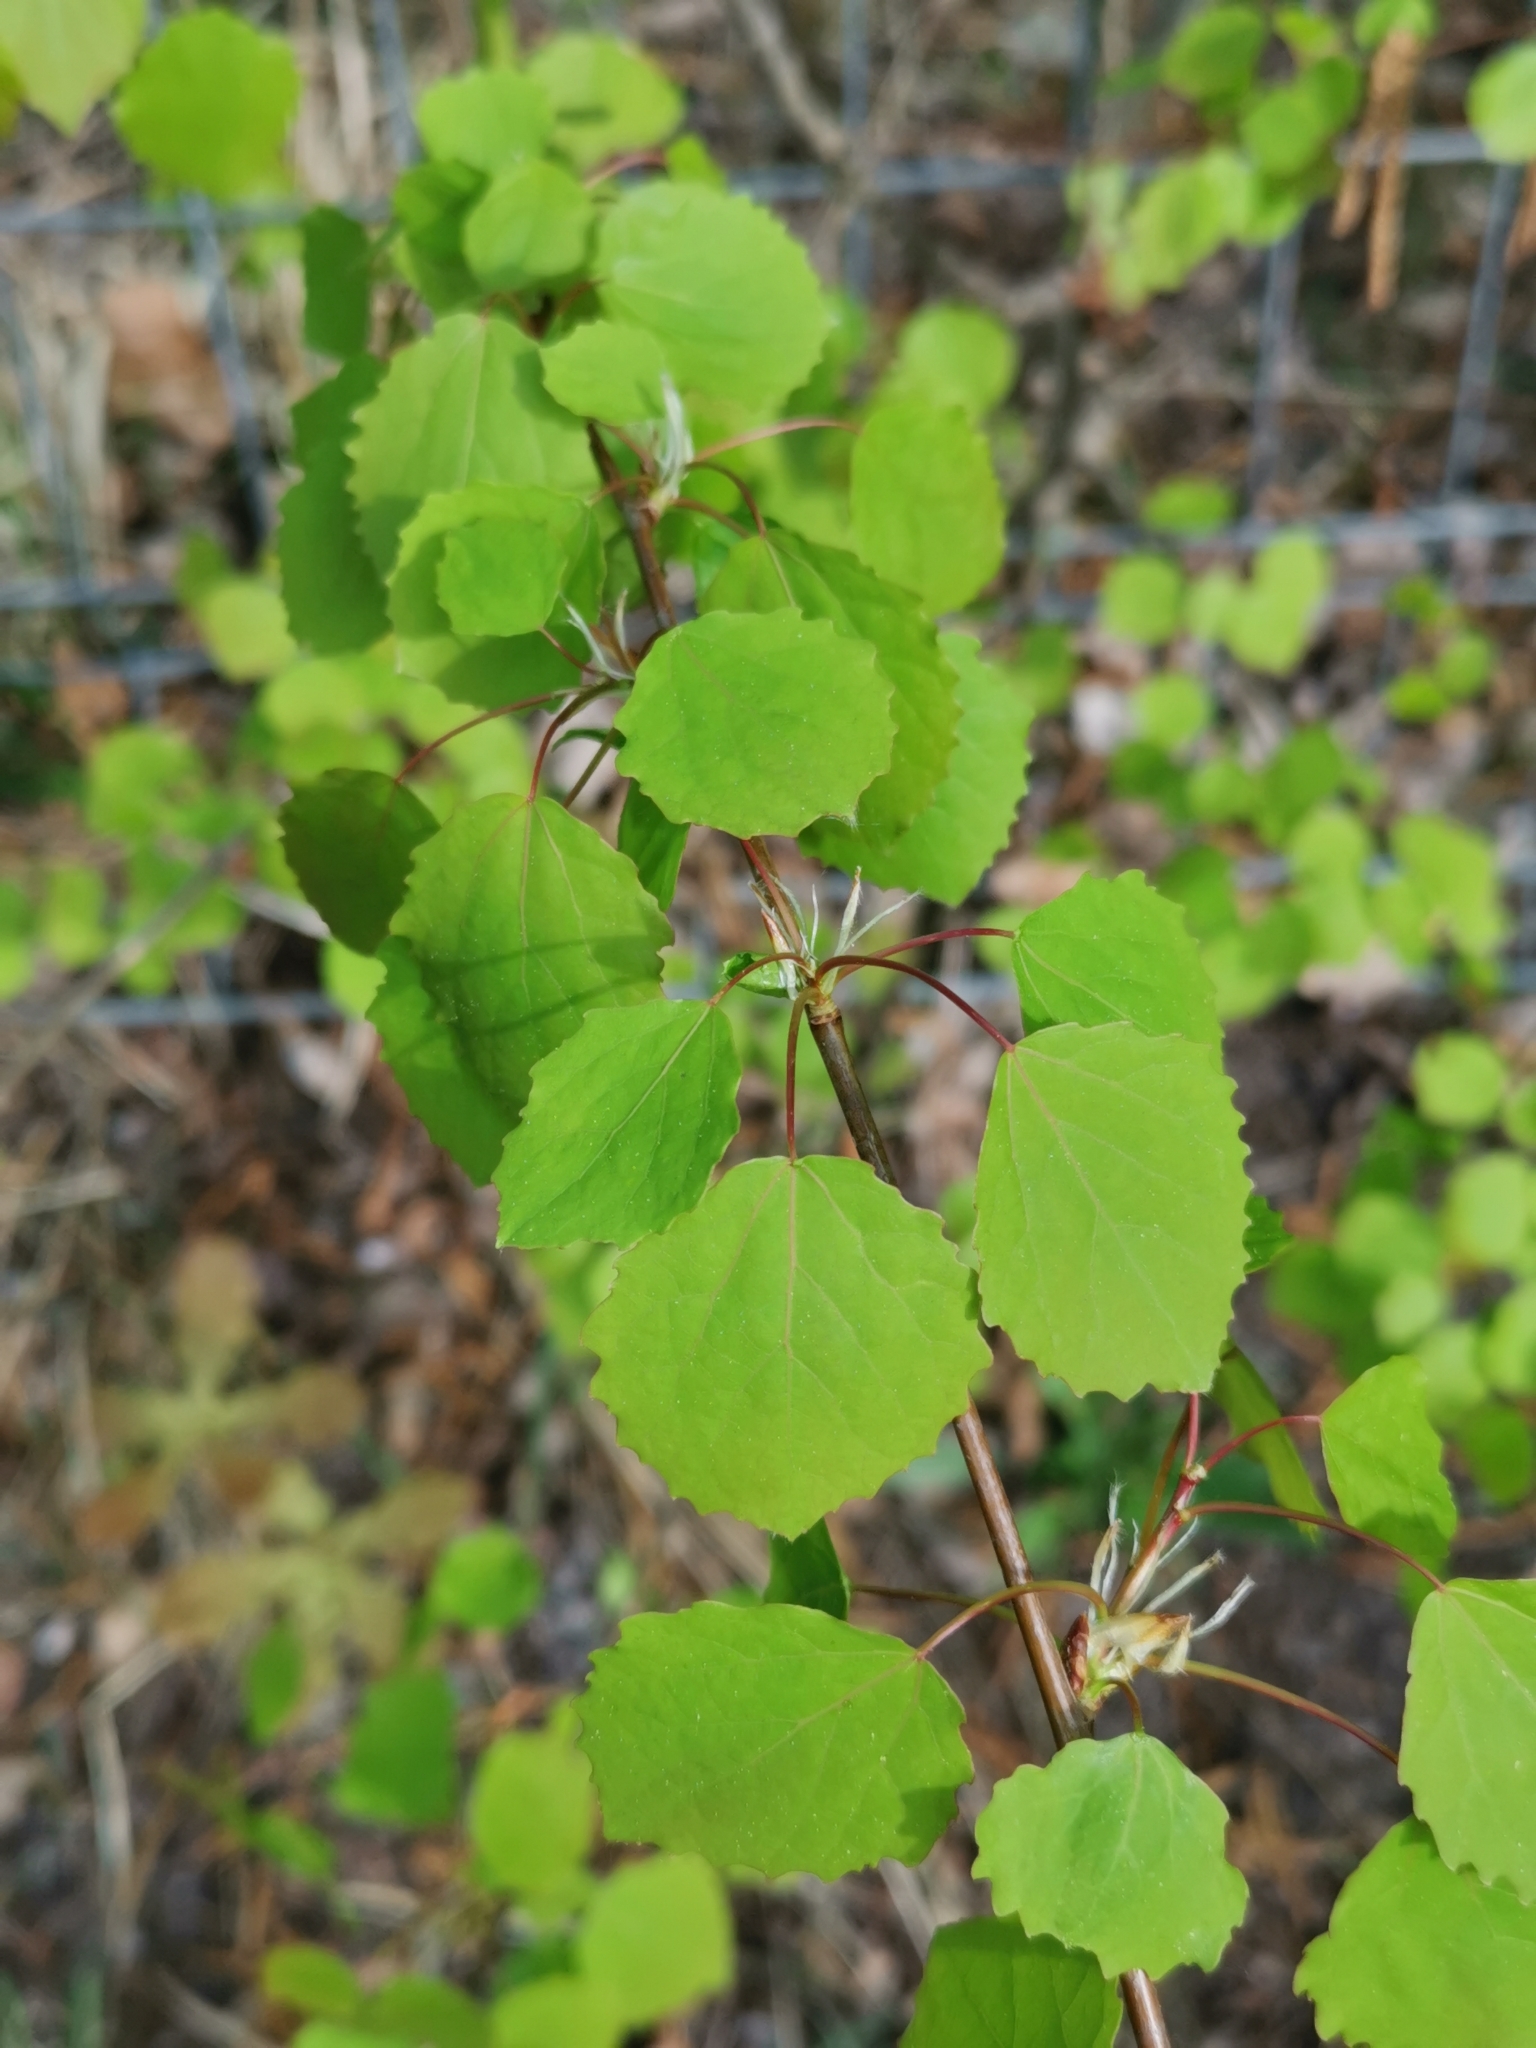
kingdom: Plantae
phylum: Tracheophyta
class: Magnoliopsida
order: Malpighiales
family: Salicaceae
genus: Populus
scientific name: Populus tremula
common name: European aspen
